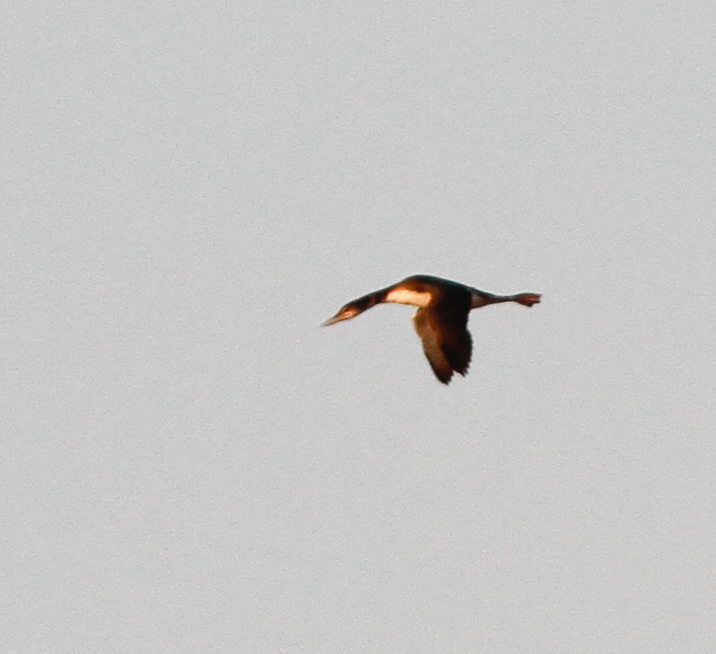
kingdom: Animalia
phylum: Chordata
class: Aves
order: Gaviiformes
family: Gaviidae
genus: Gavia
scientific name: Gavia immer
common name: Common loon
